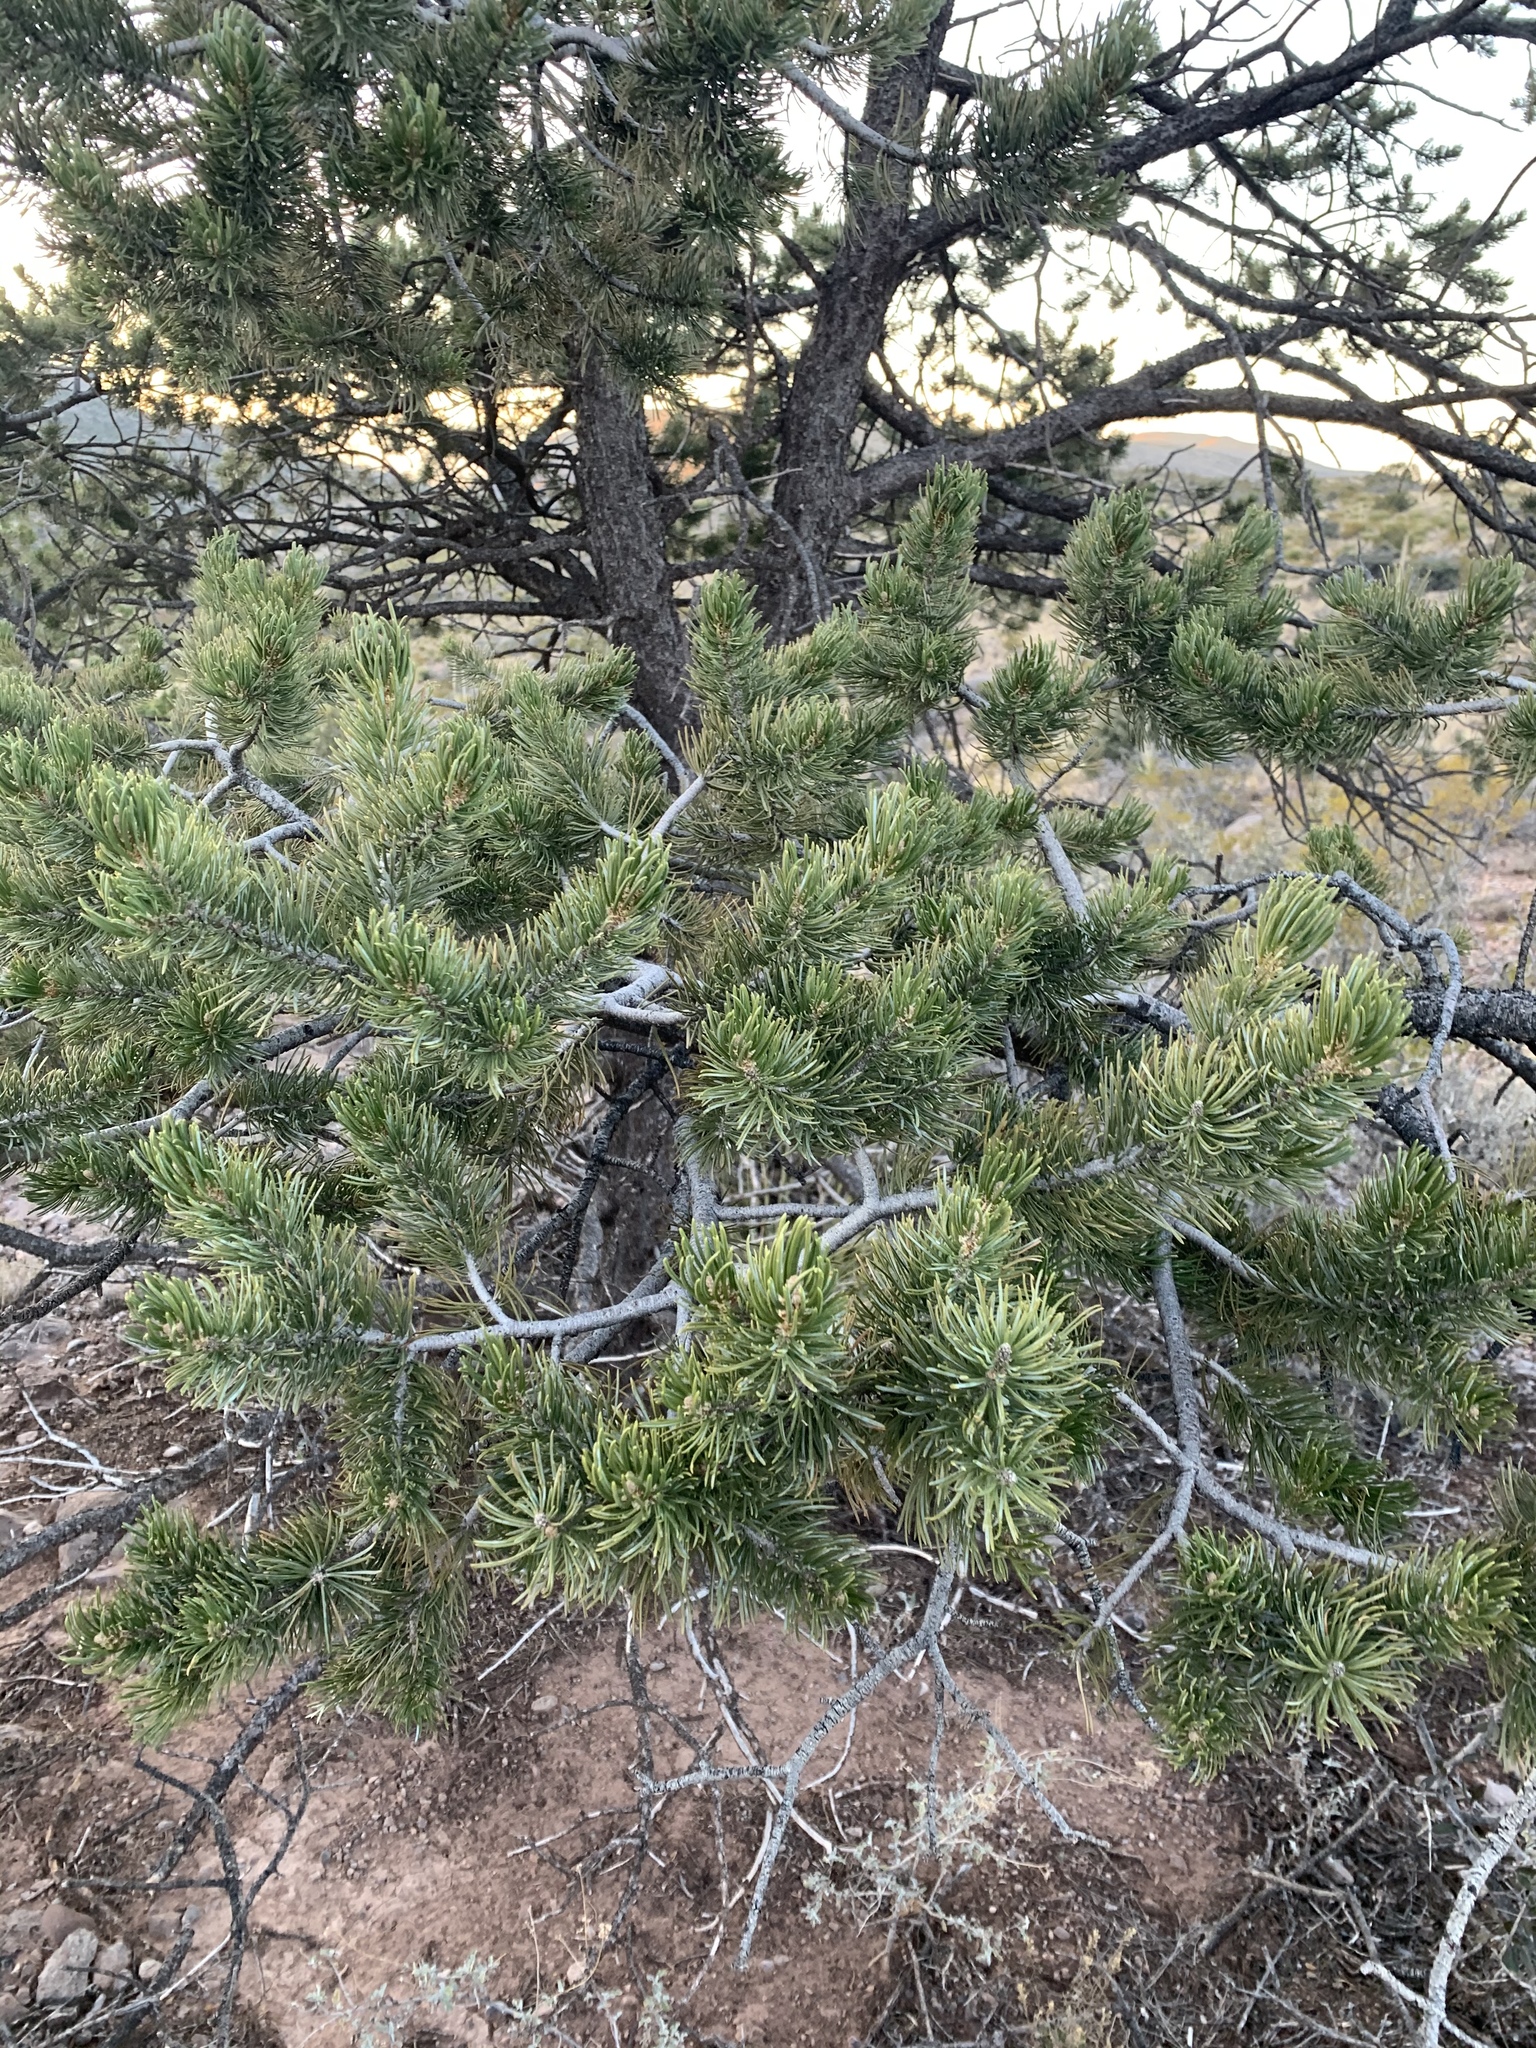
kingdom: Plantae
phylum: Tracheophyta
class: Pinopsida
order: Pinales
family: Pinaceae
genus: Pinus
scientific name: Pinus edulis
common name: Colorado pinyon
